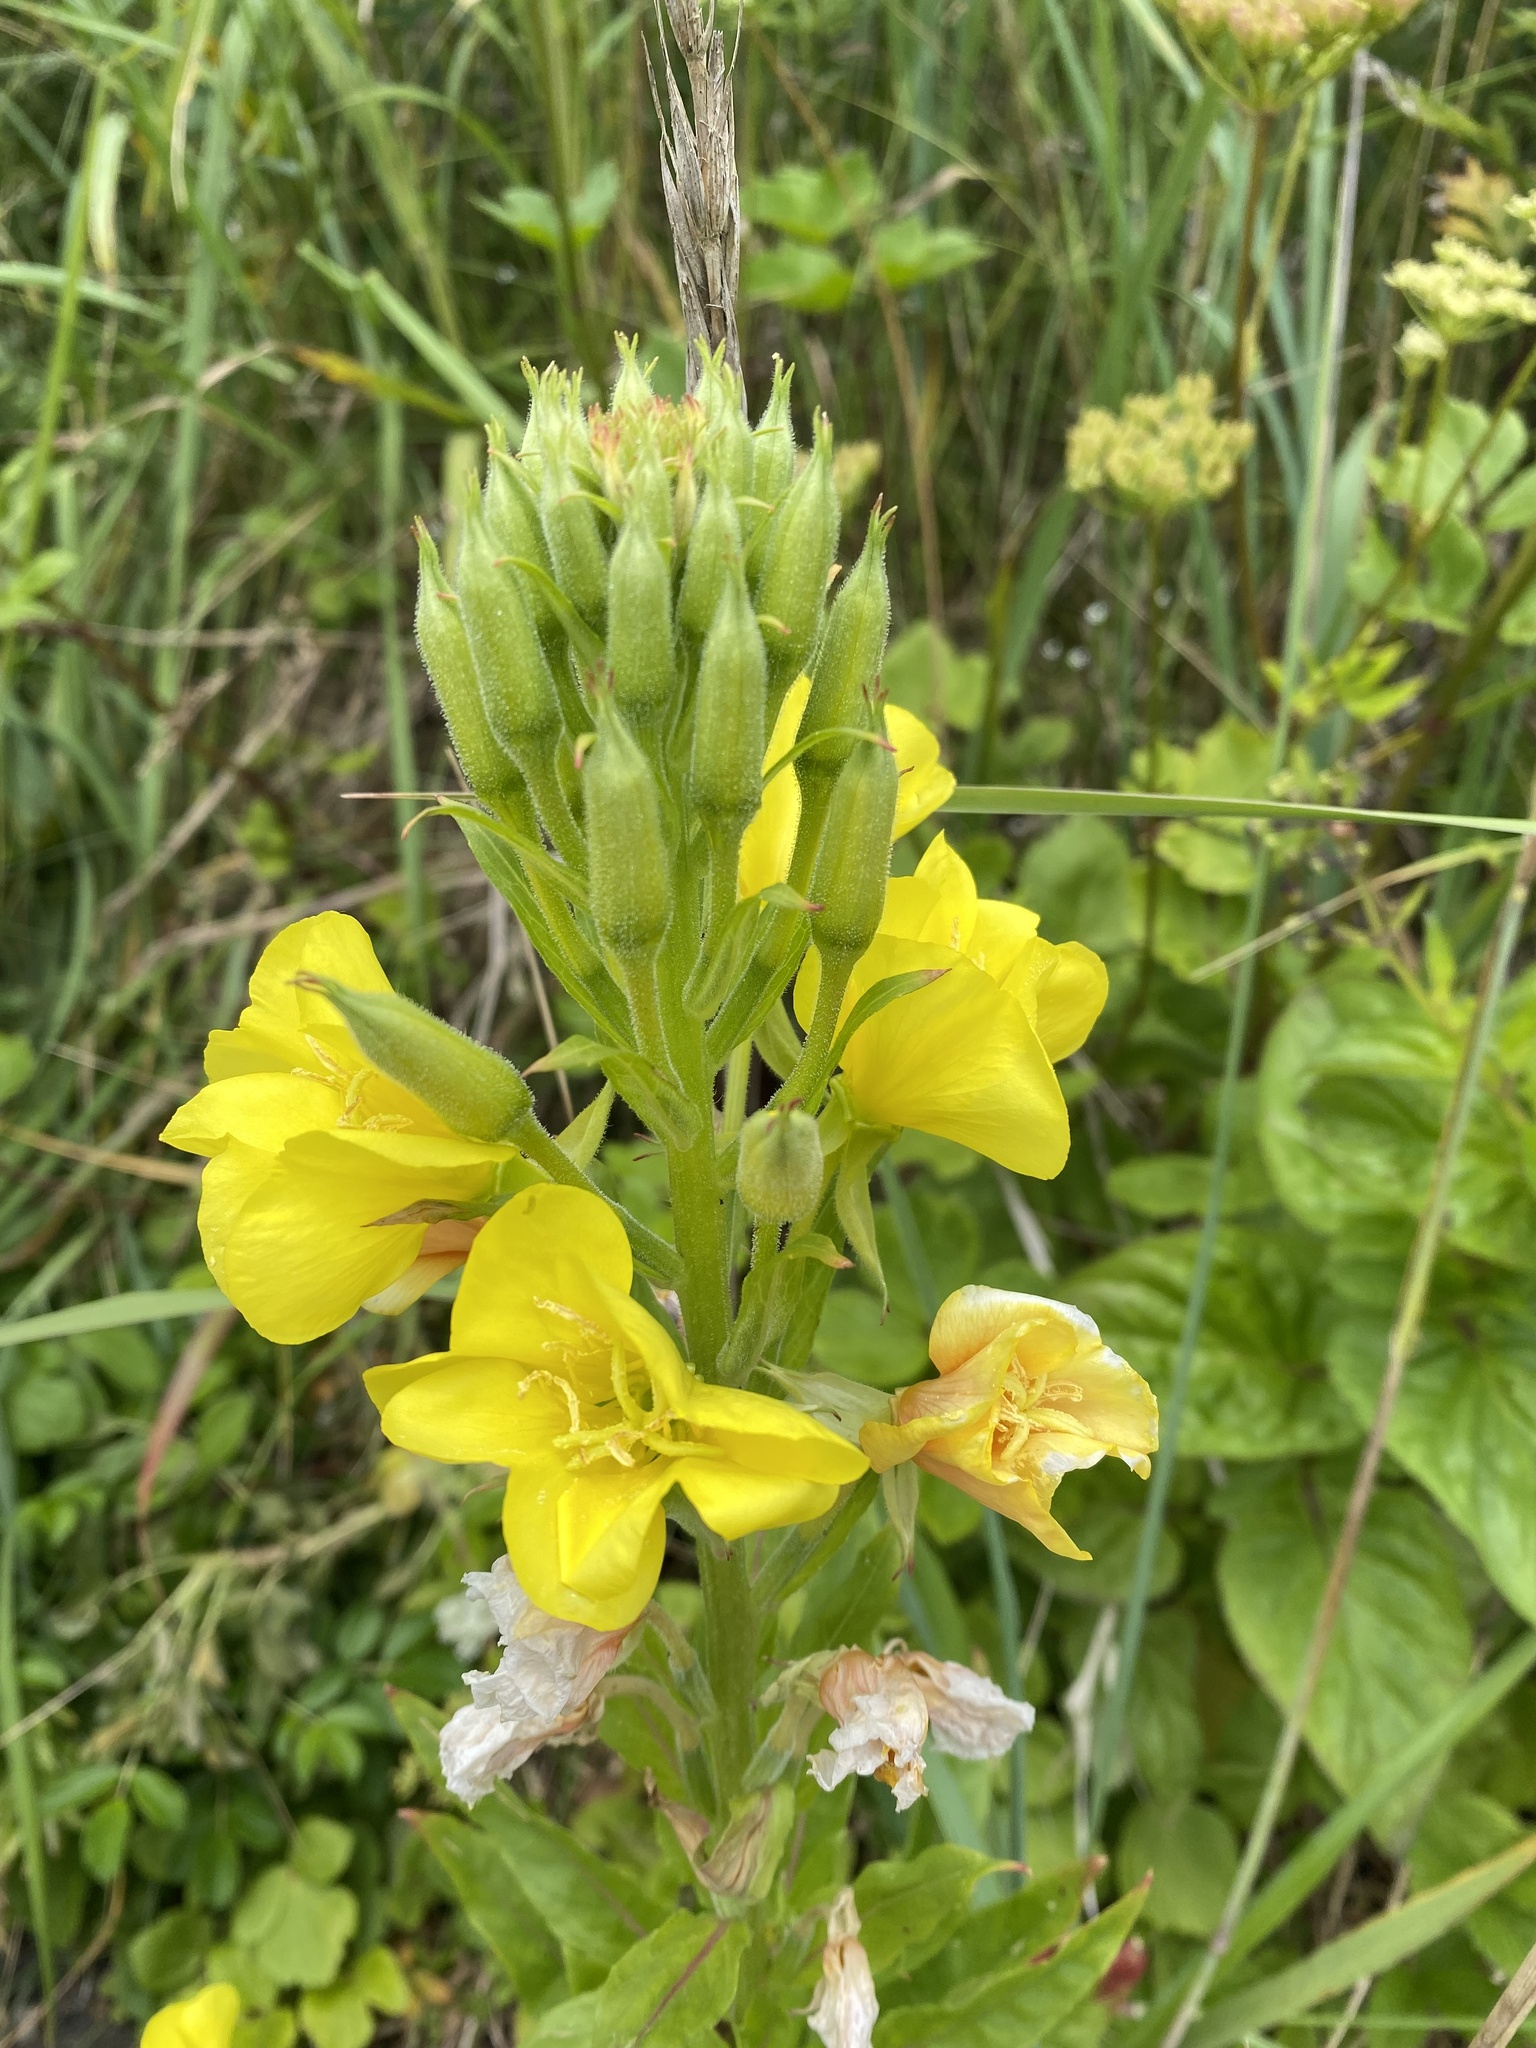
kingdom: Plantae
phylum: Tracheophyta
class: Magnoliopsida
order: Myrtales
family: Onagraceae
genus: Oenothera
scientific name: Oenothera biennis
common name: Common evening-primrose
